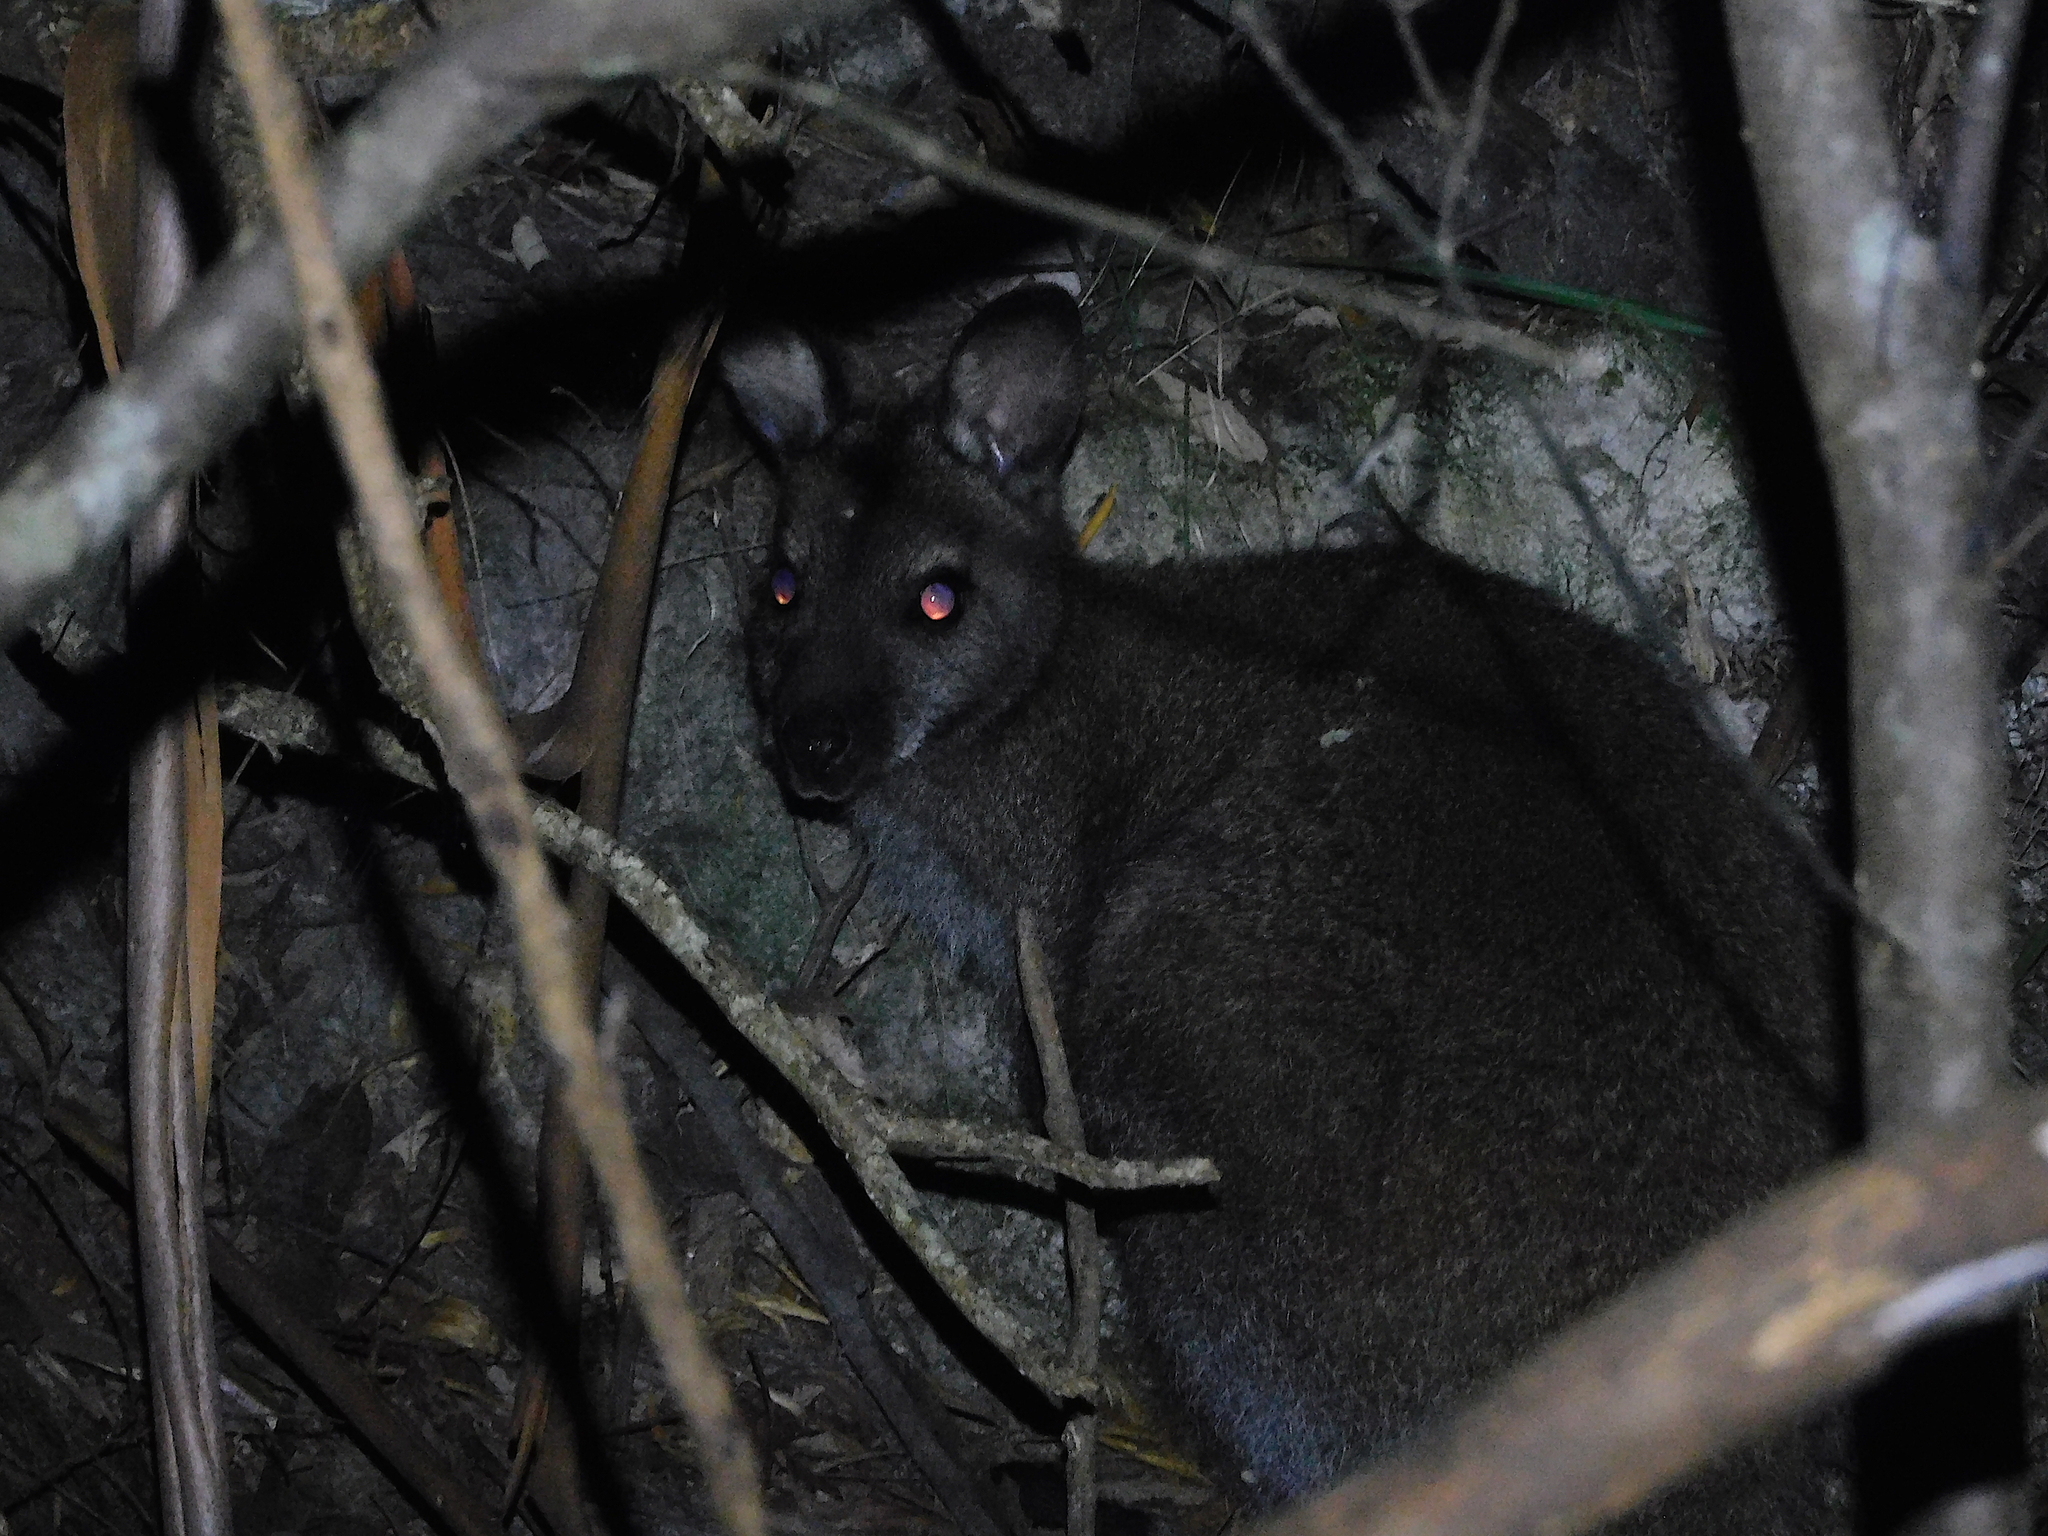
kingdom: Animalia
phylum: Chordata
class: Mammalia
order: Diprotodontia
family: Macropodidae
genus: Notamacropus
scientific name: Notamacropus rufogriseus
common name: Red-necked wallaby
